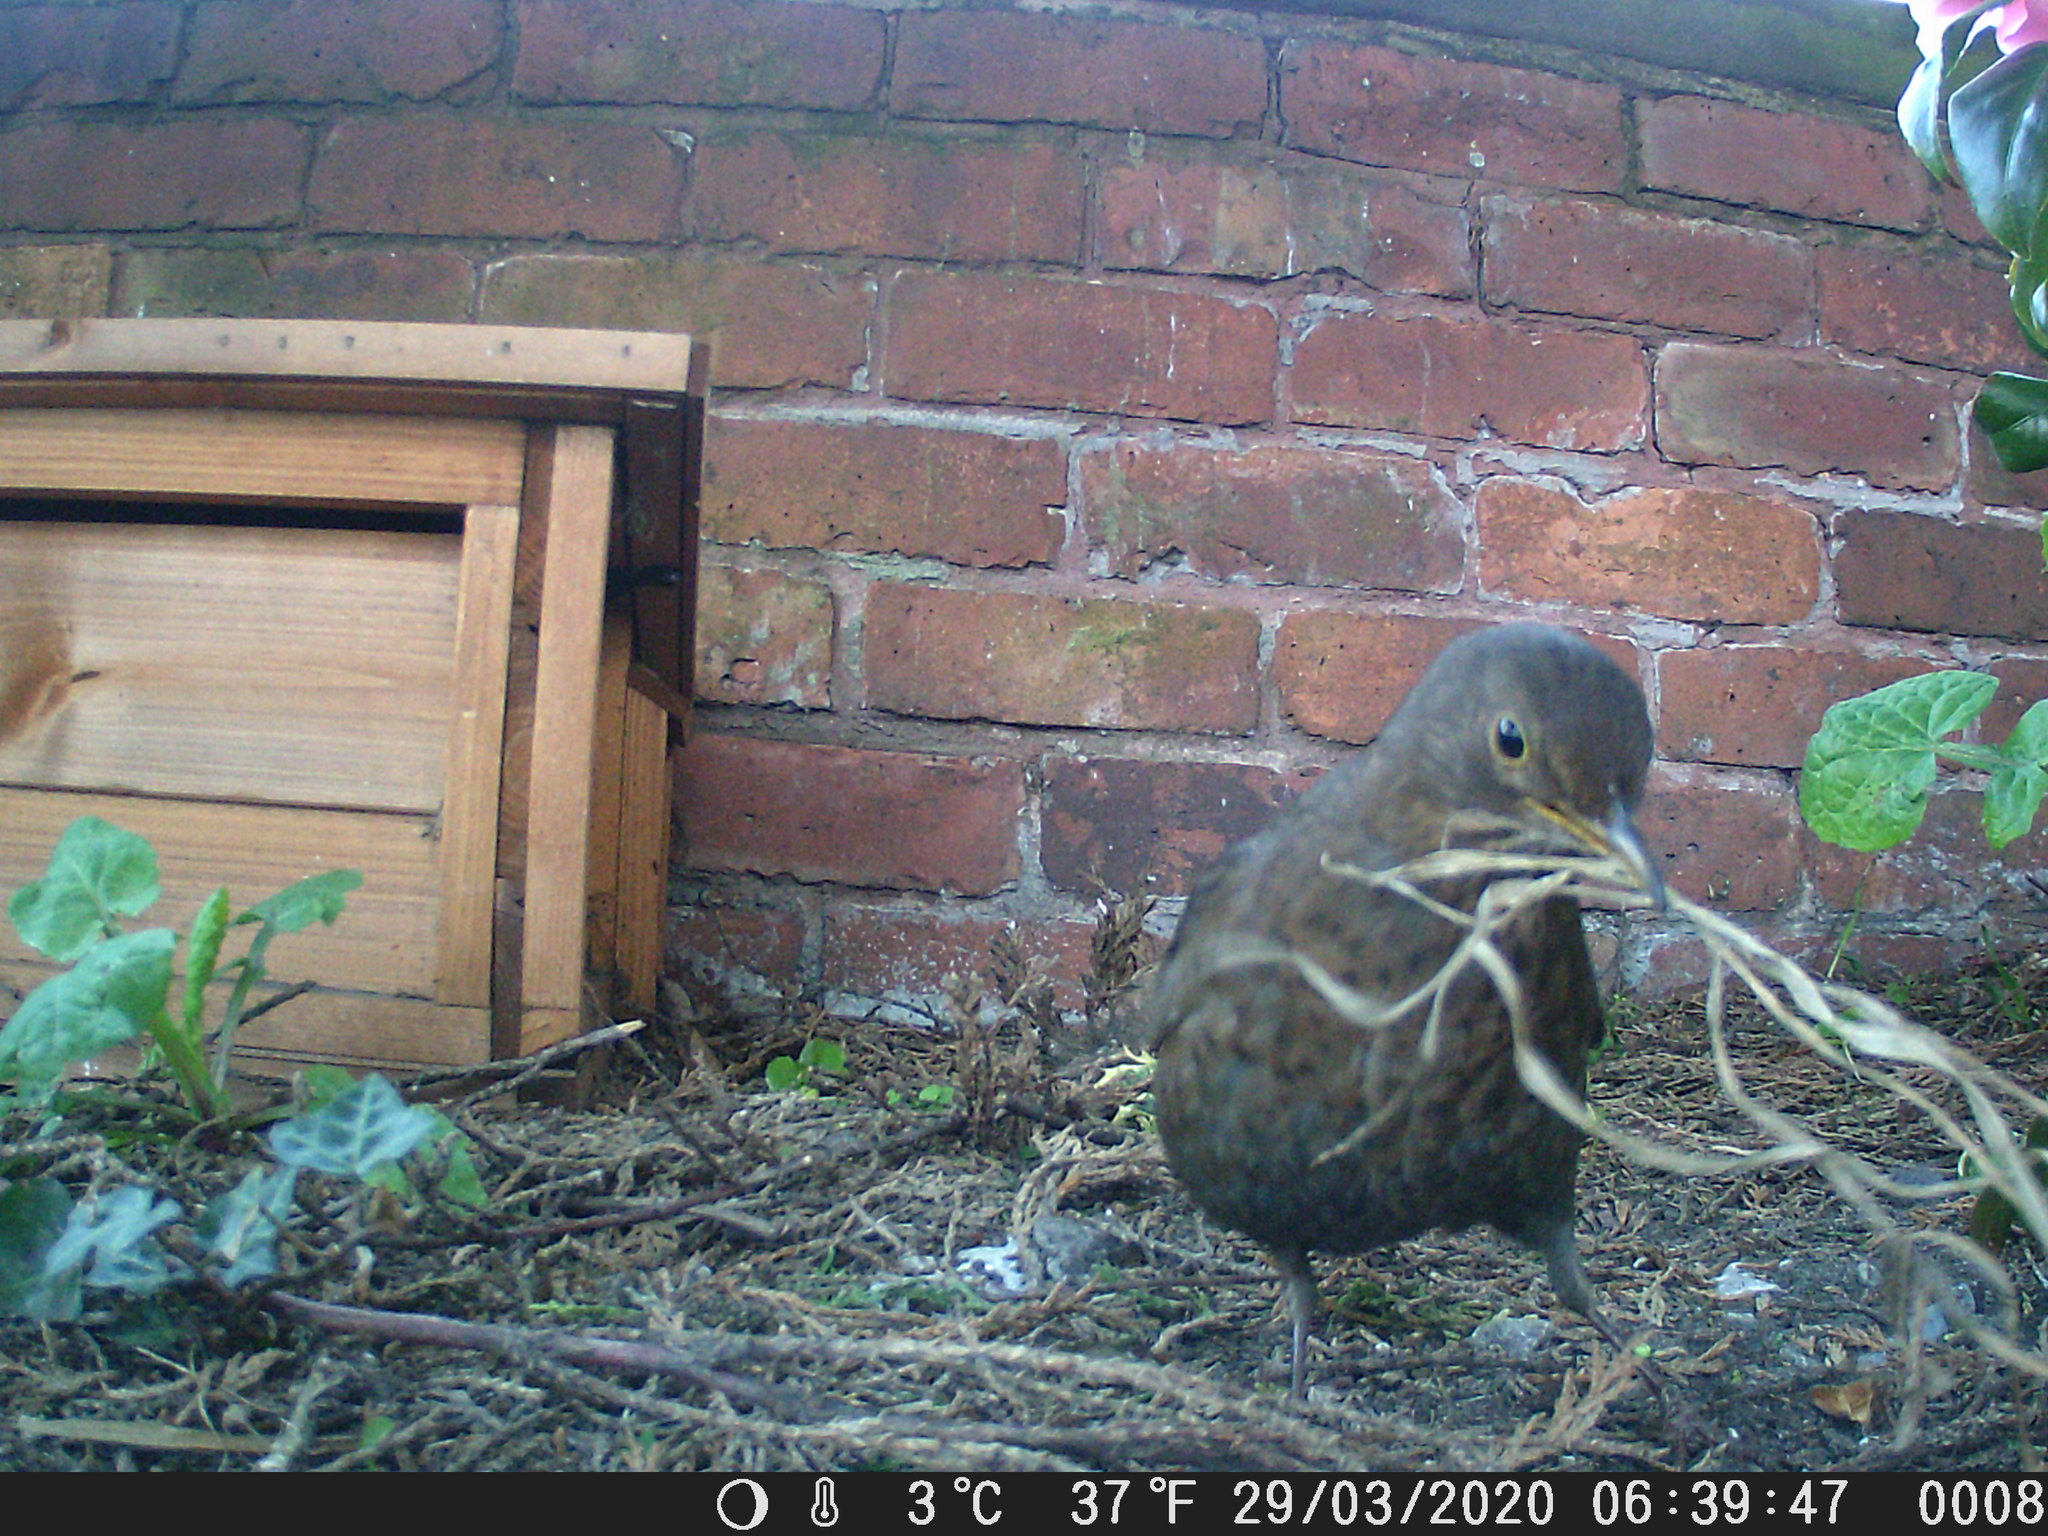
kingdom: Animalia
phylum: Chordata
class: Aves
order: Passeriformes
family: Turdidae
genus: Turdus
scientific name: Turdus merula
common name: Common blackbird
